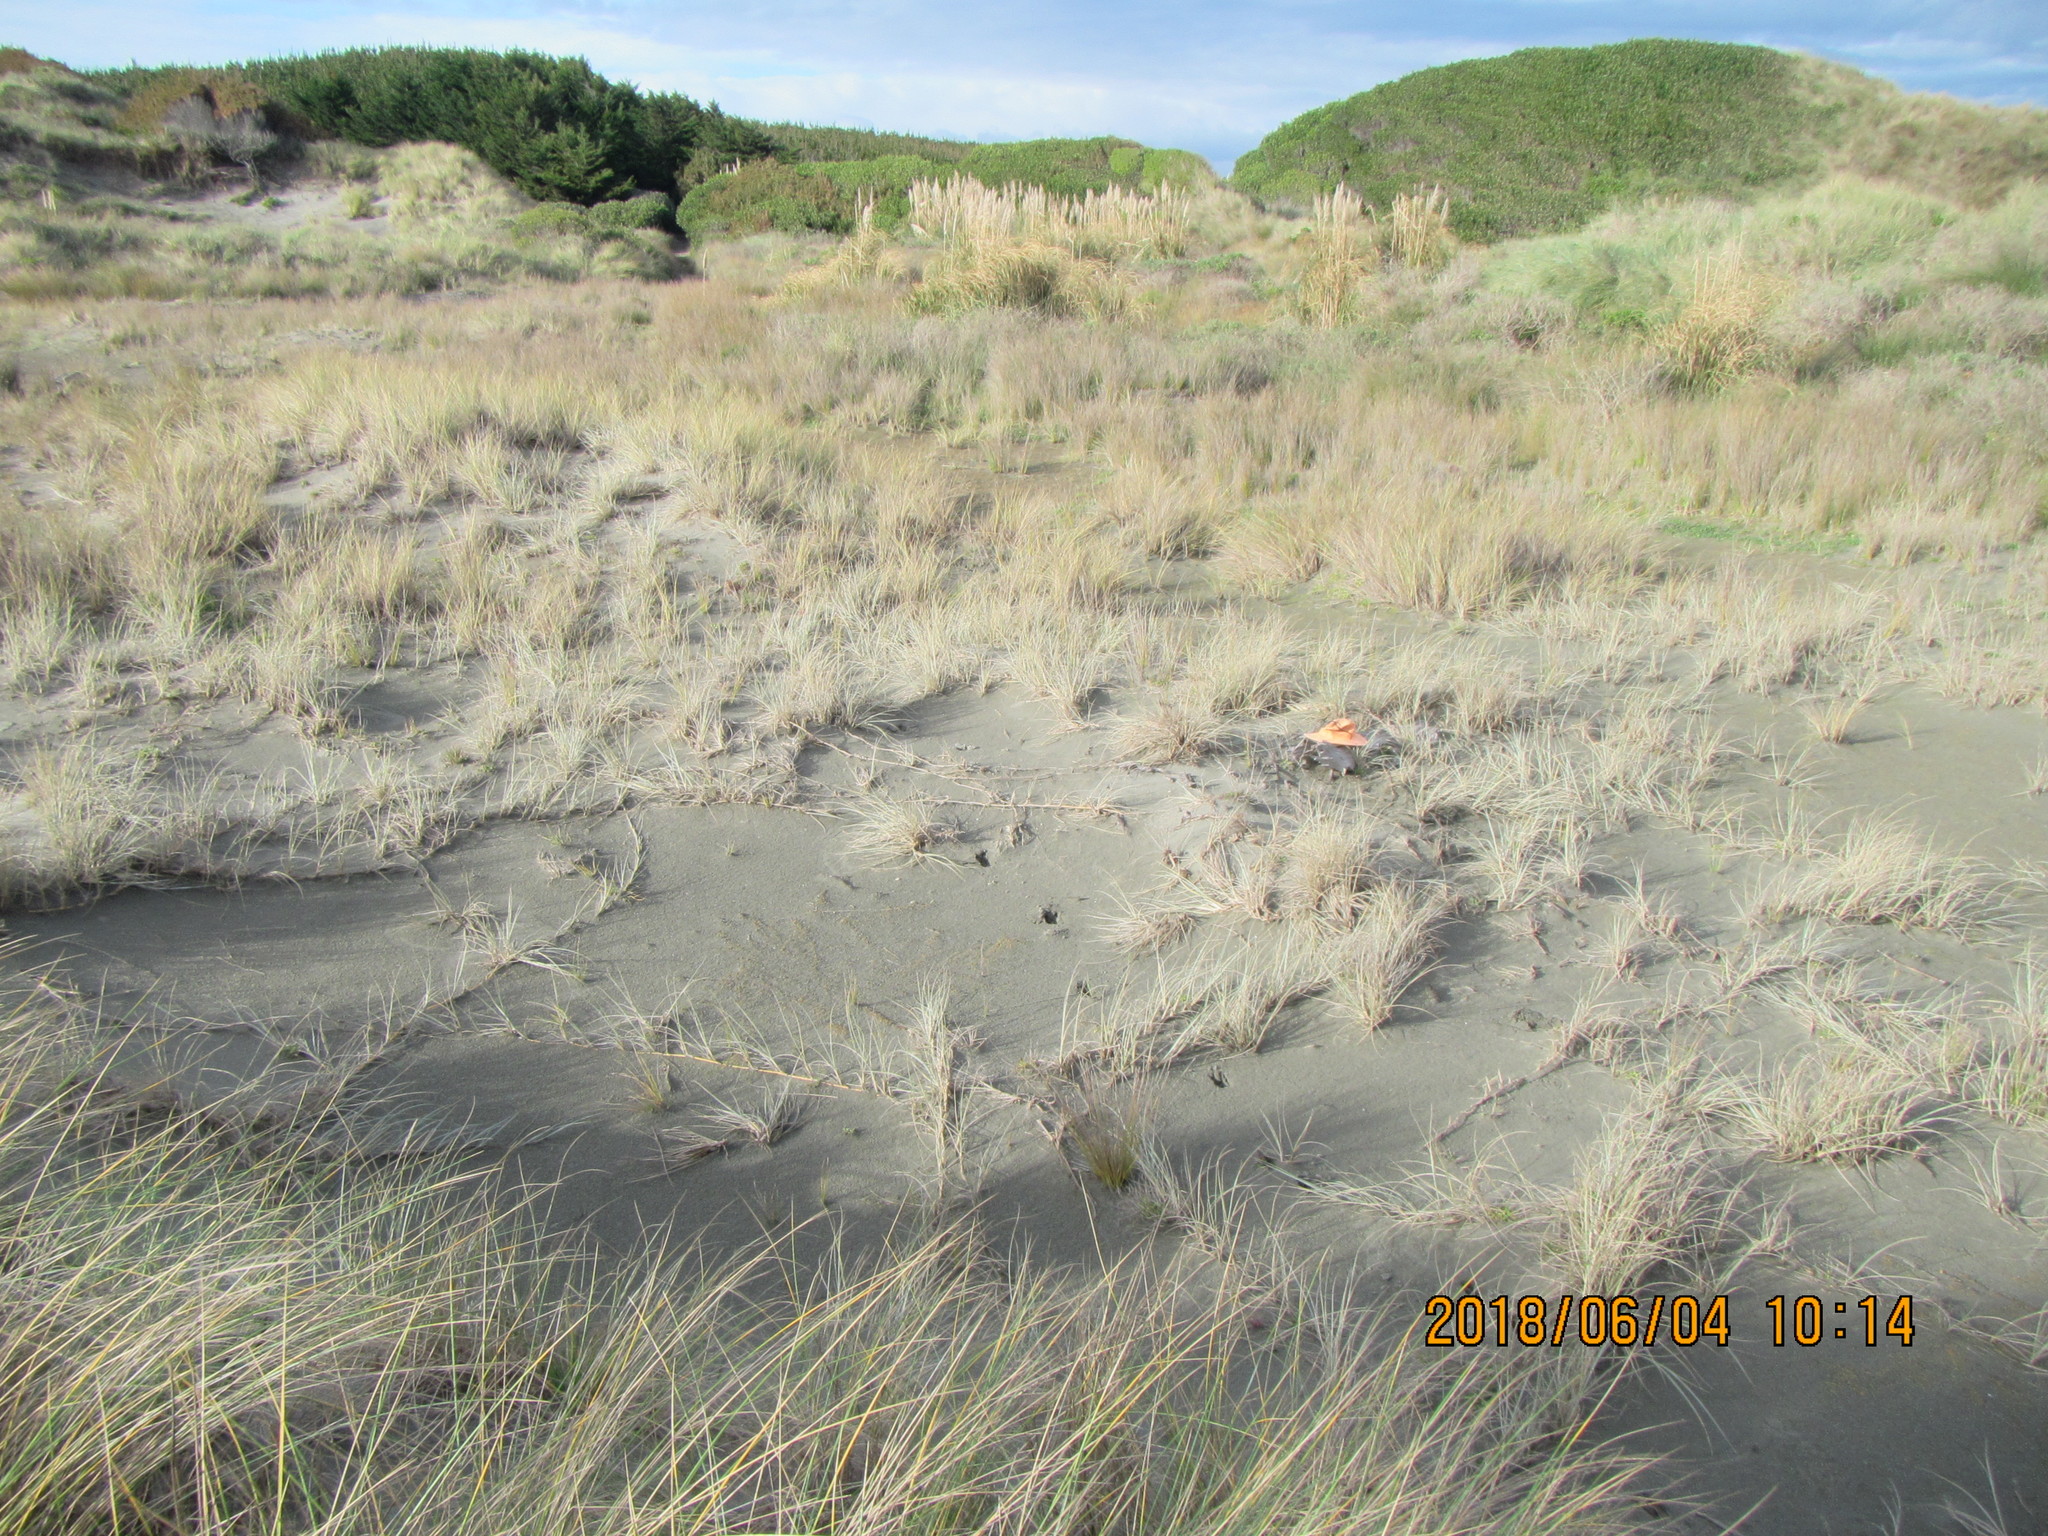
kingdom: Animalia
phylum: Chordata
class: Mammalia
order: Artiodactyla
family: Cervidae
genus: Rusa
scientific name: Rusa unicolor
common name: Sambar
